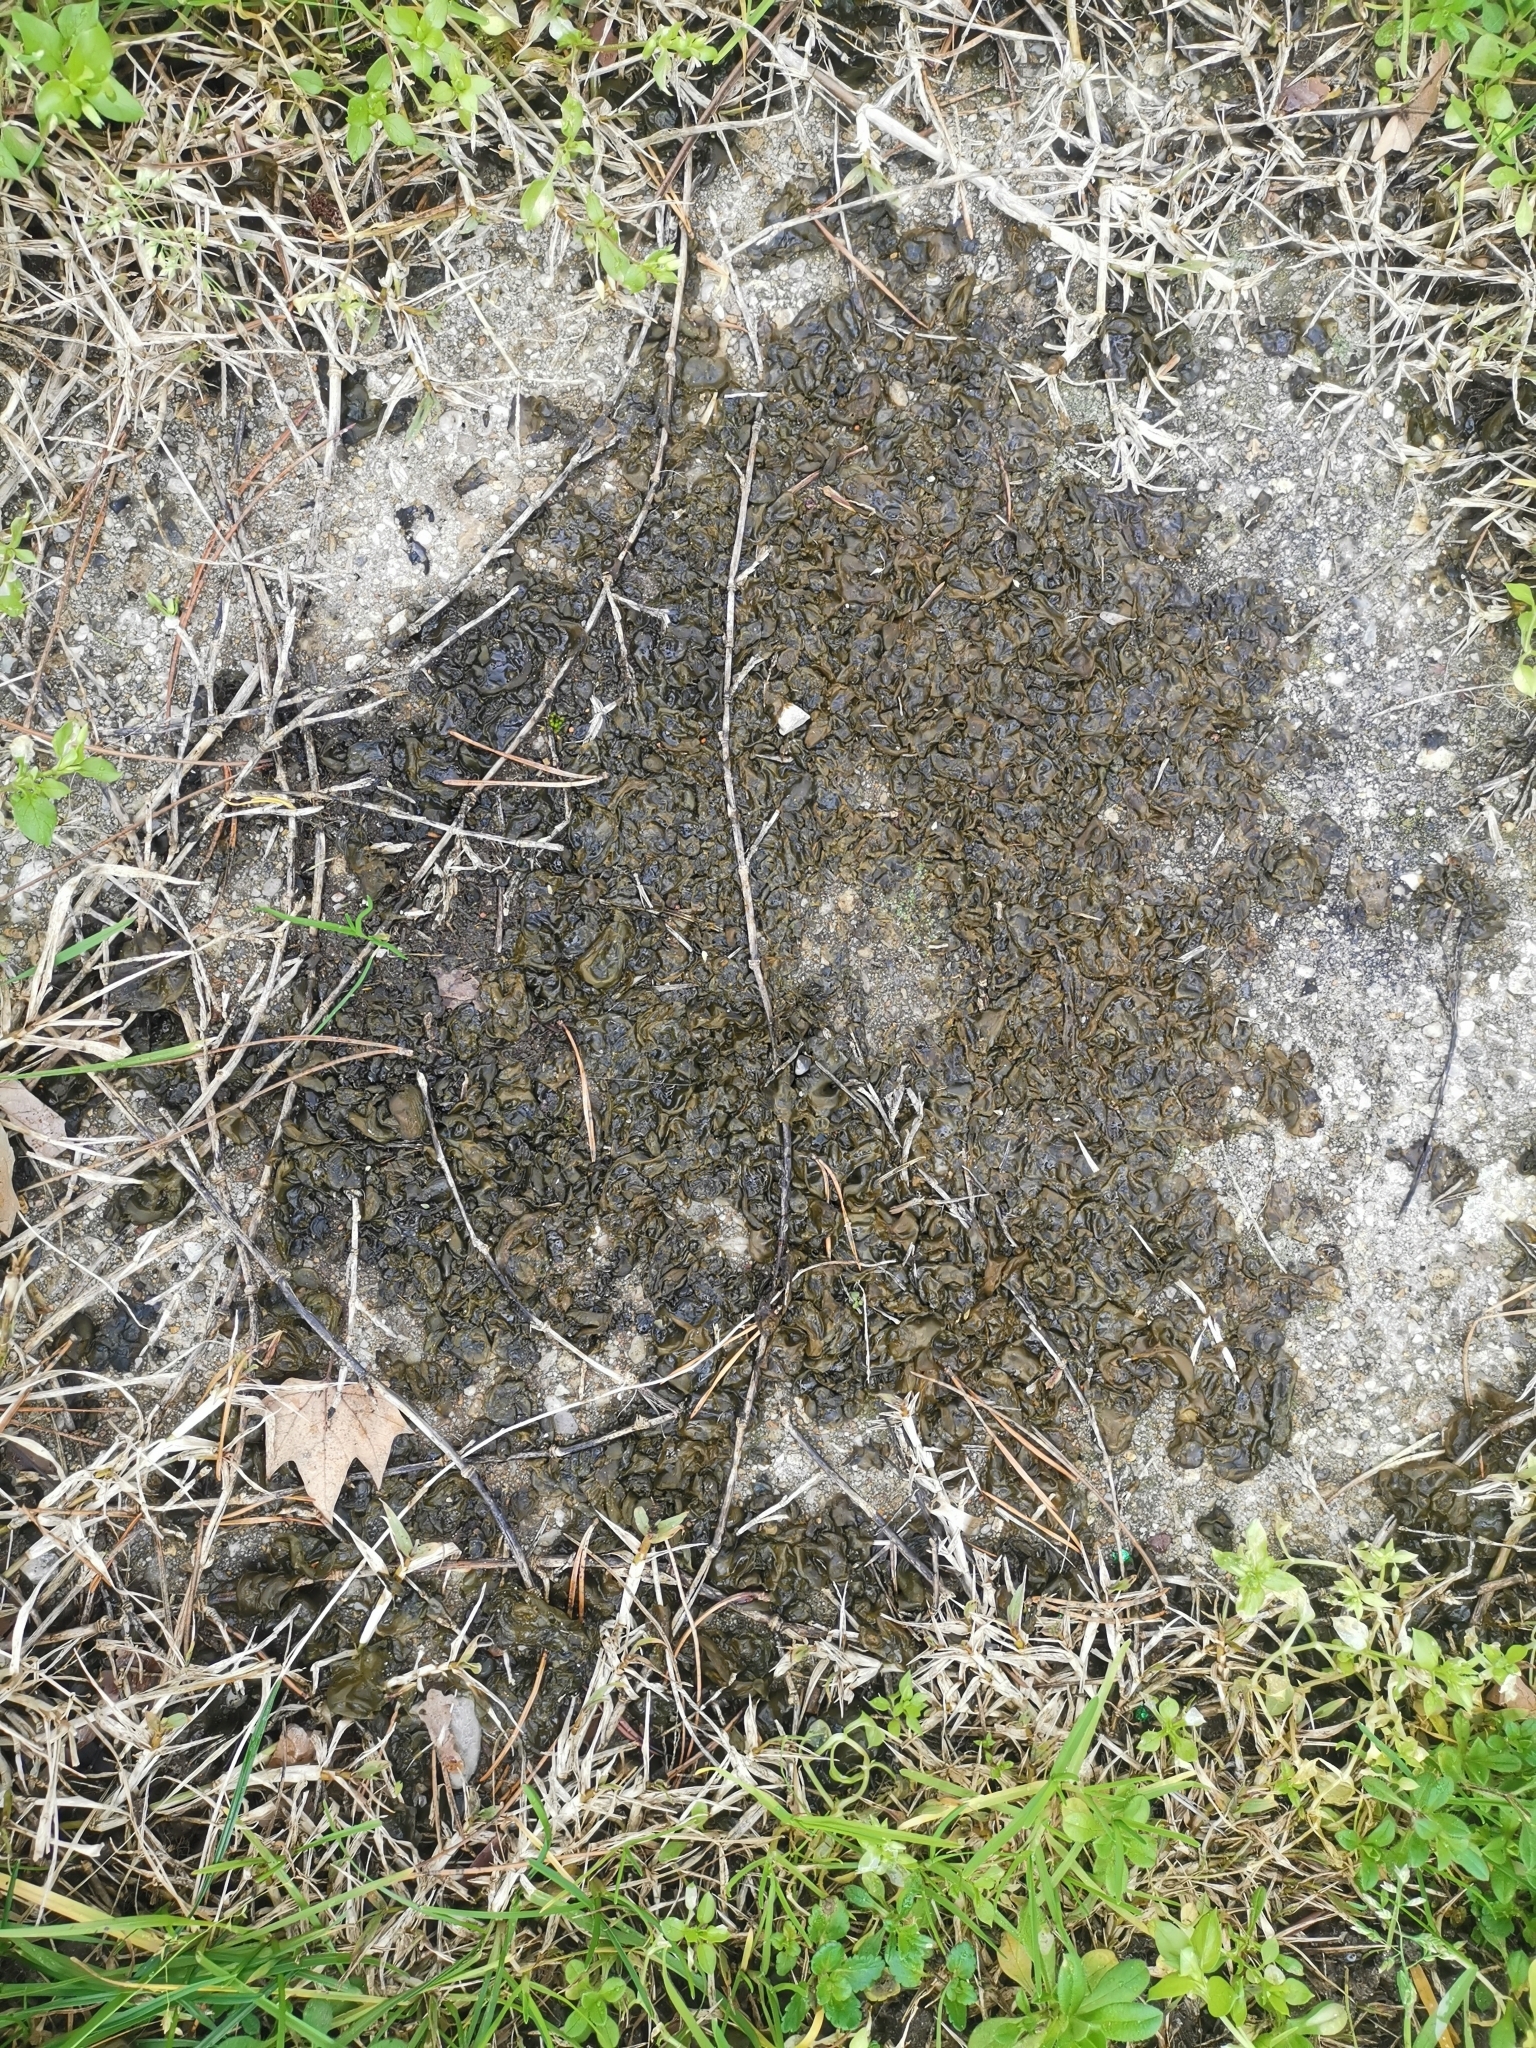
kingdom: Bacteria
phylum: Cyanobacteria
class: Cyanobacteriia
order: Cyanobacteriales
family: Nostocaceae
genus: Nostoc
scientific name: Nostoc commune
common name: Star jelly
